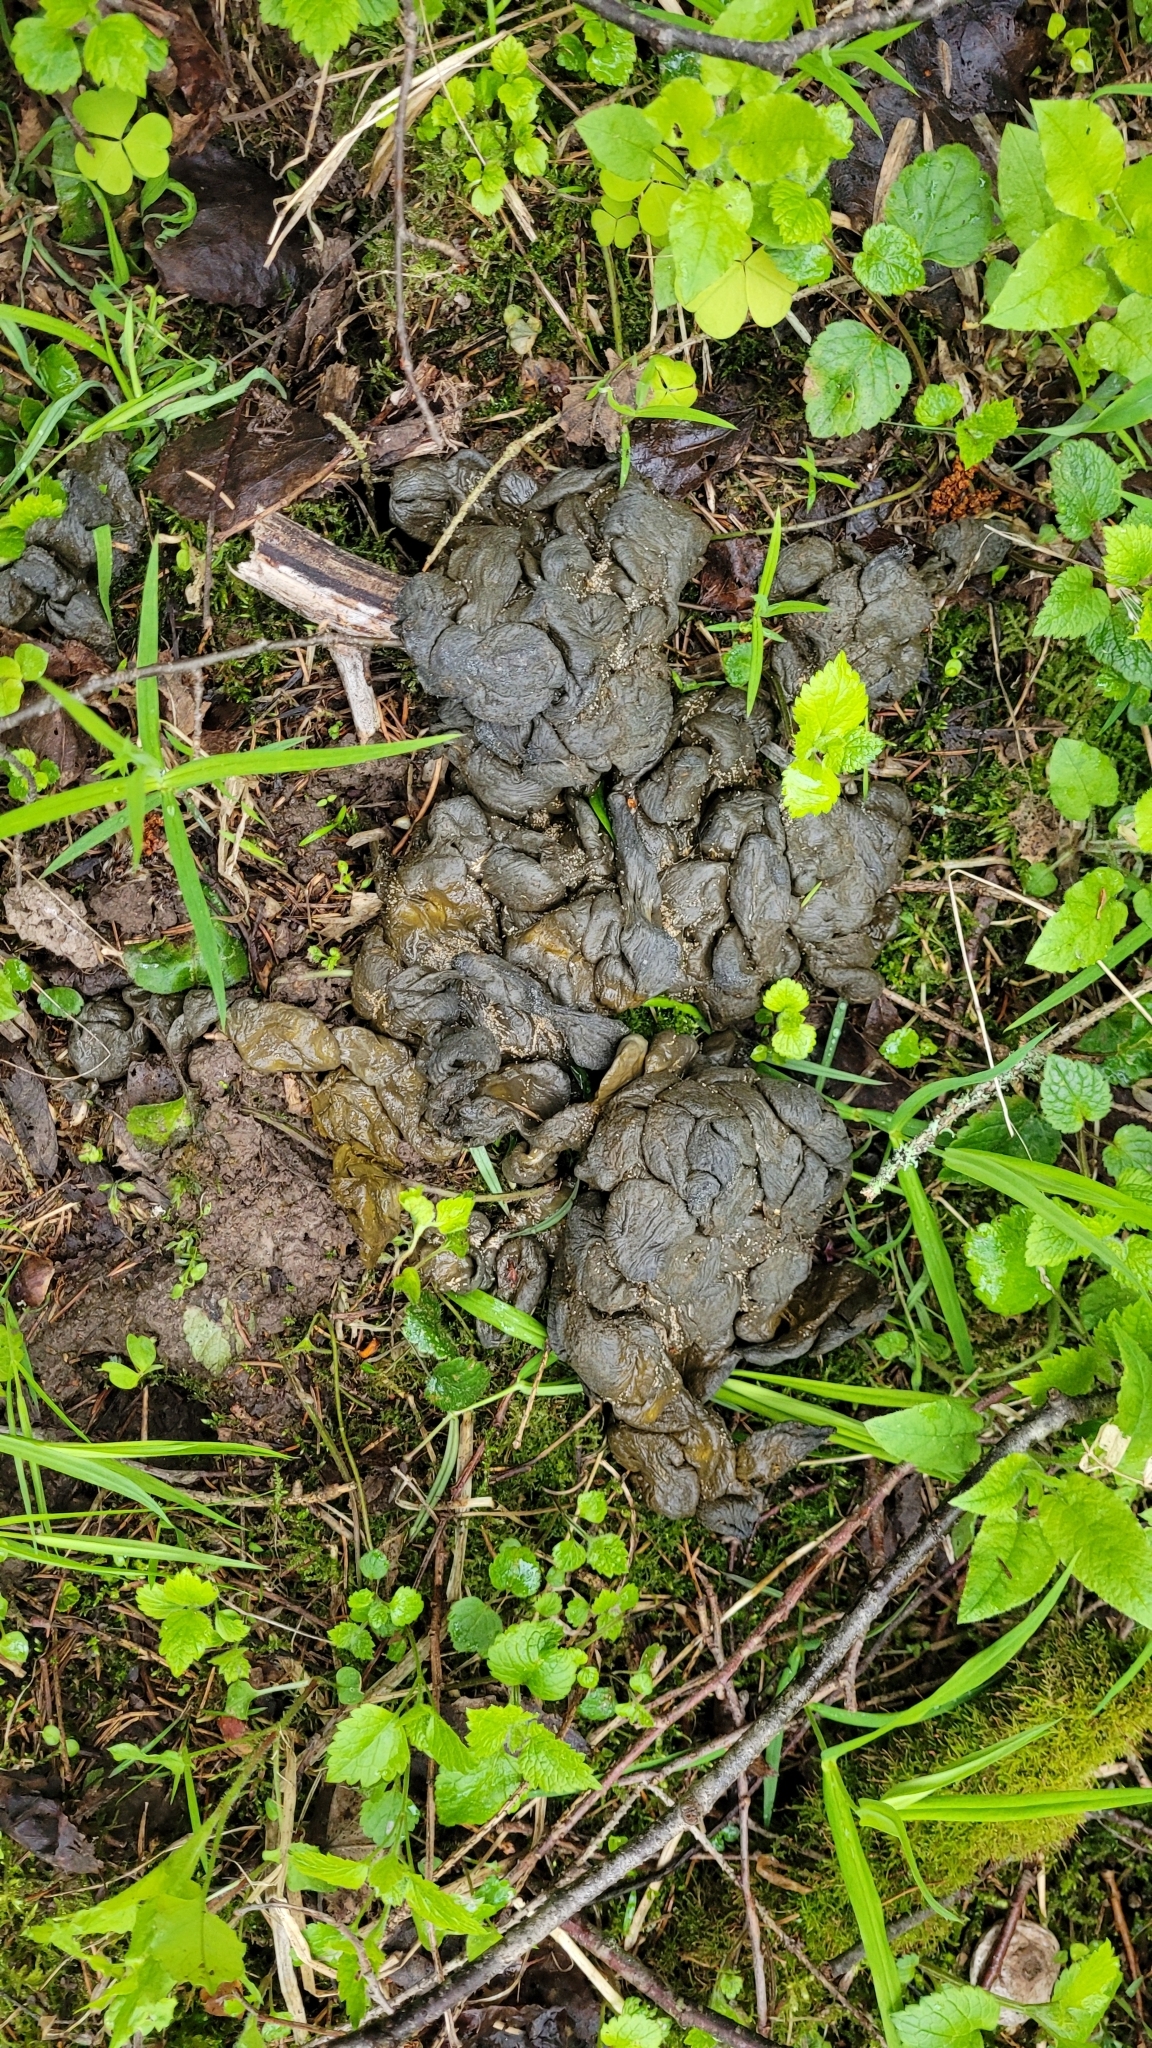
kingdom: Animalia
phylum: Chordata
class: Mammalia
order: Artiodactyla
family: Suidae
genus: Sus
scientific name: Sus scrofa
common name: Wild boar
